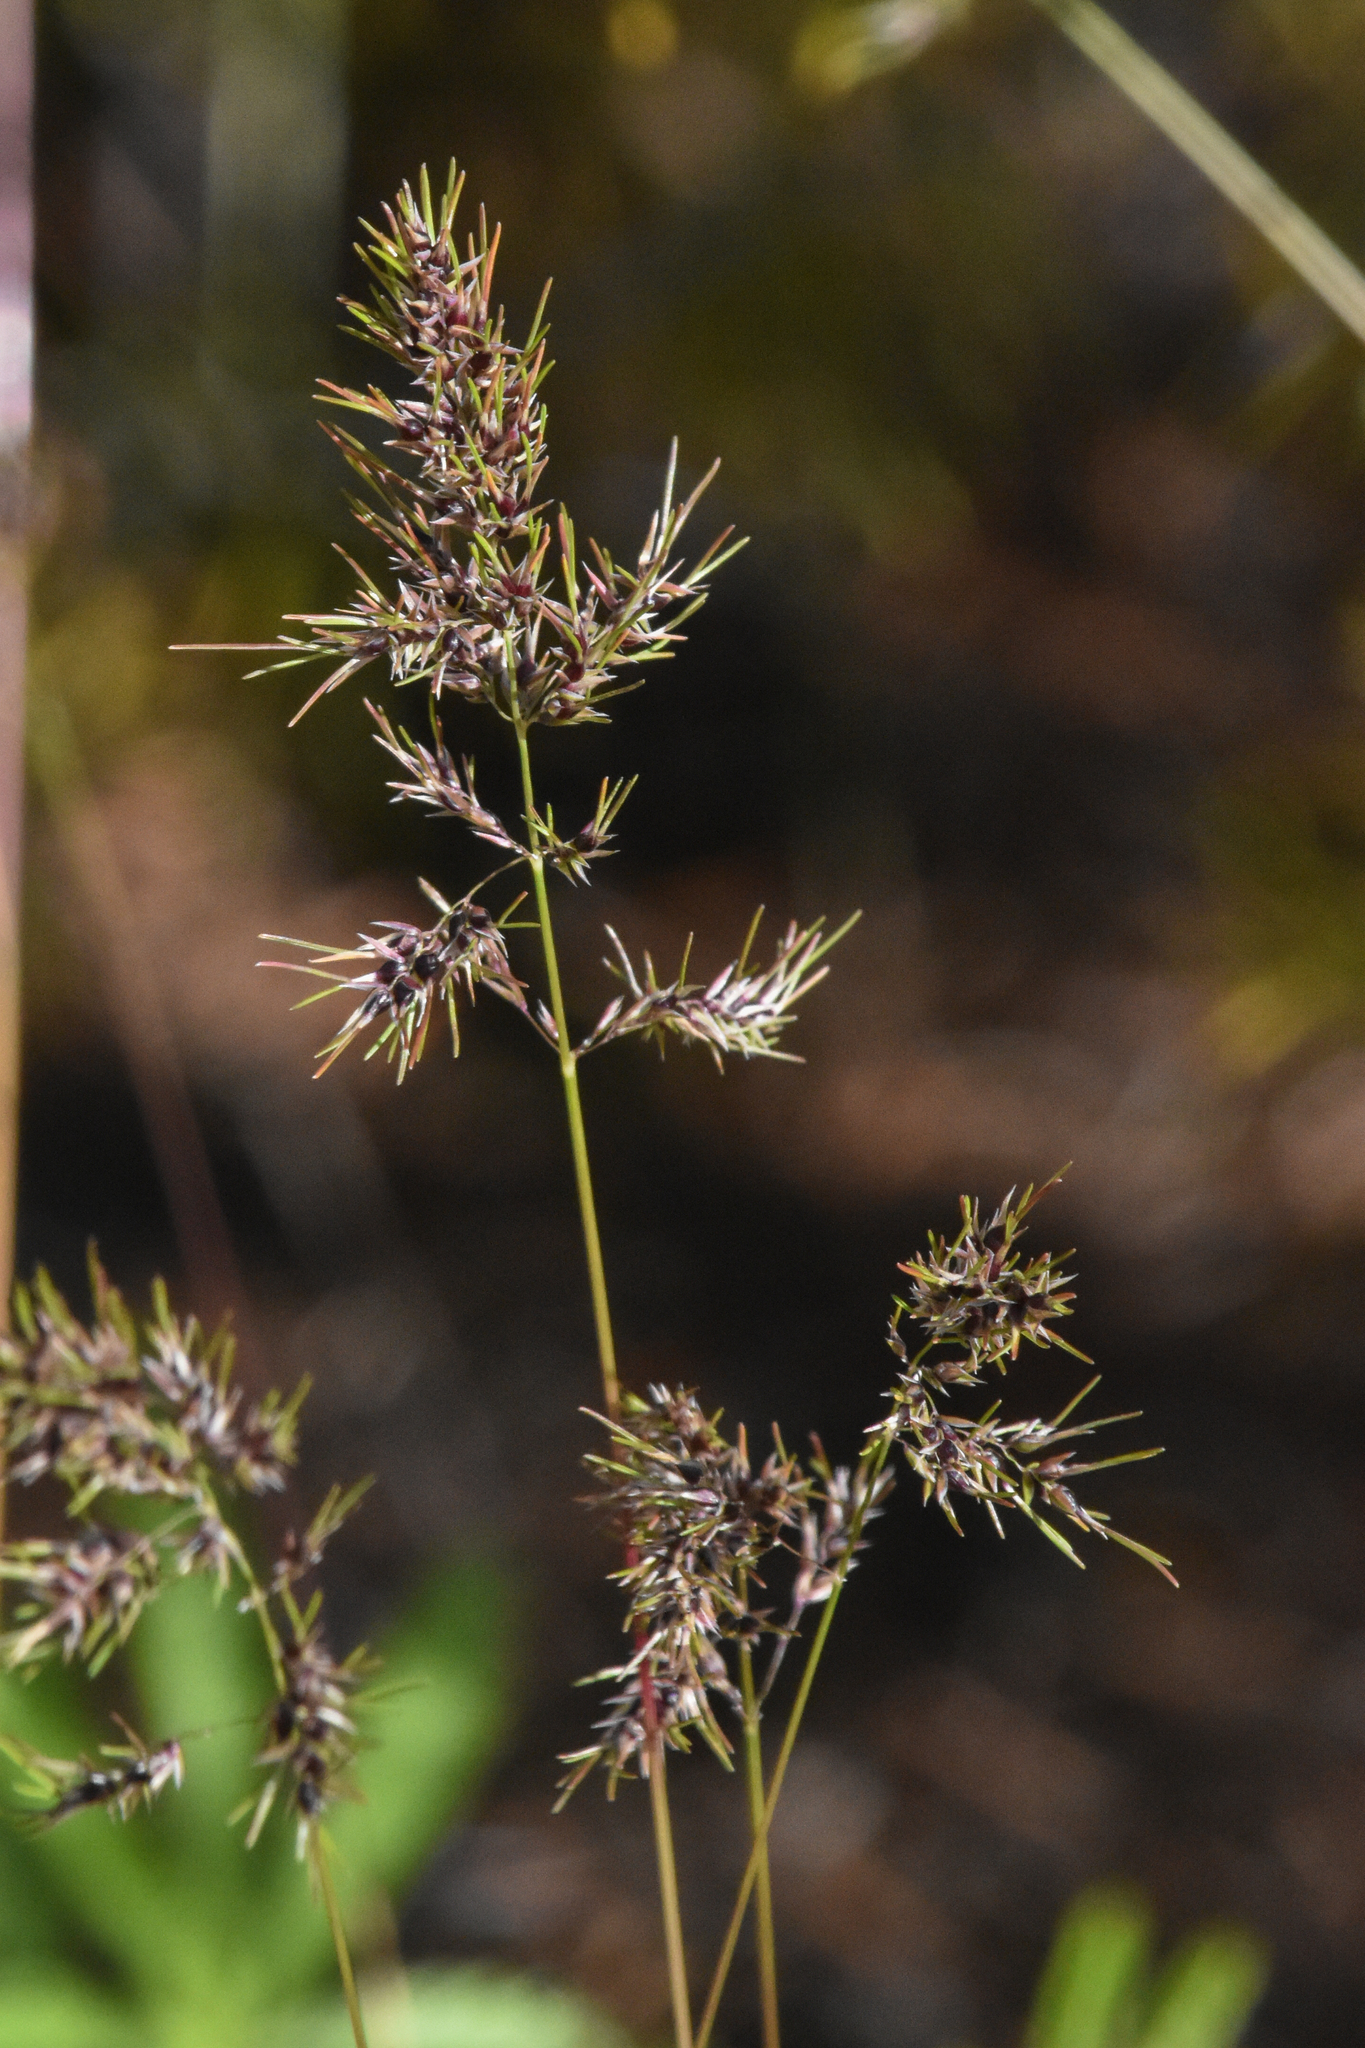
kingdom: Plantae
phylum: Tracheophyta
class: Liliopsida
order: Poales
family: Poaceae
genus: Poa
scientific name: Poa bulbosa
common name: Bulbous bluegrass
